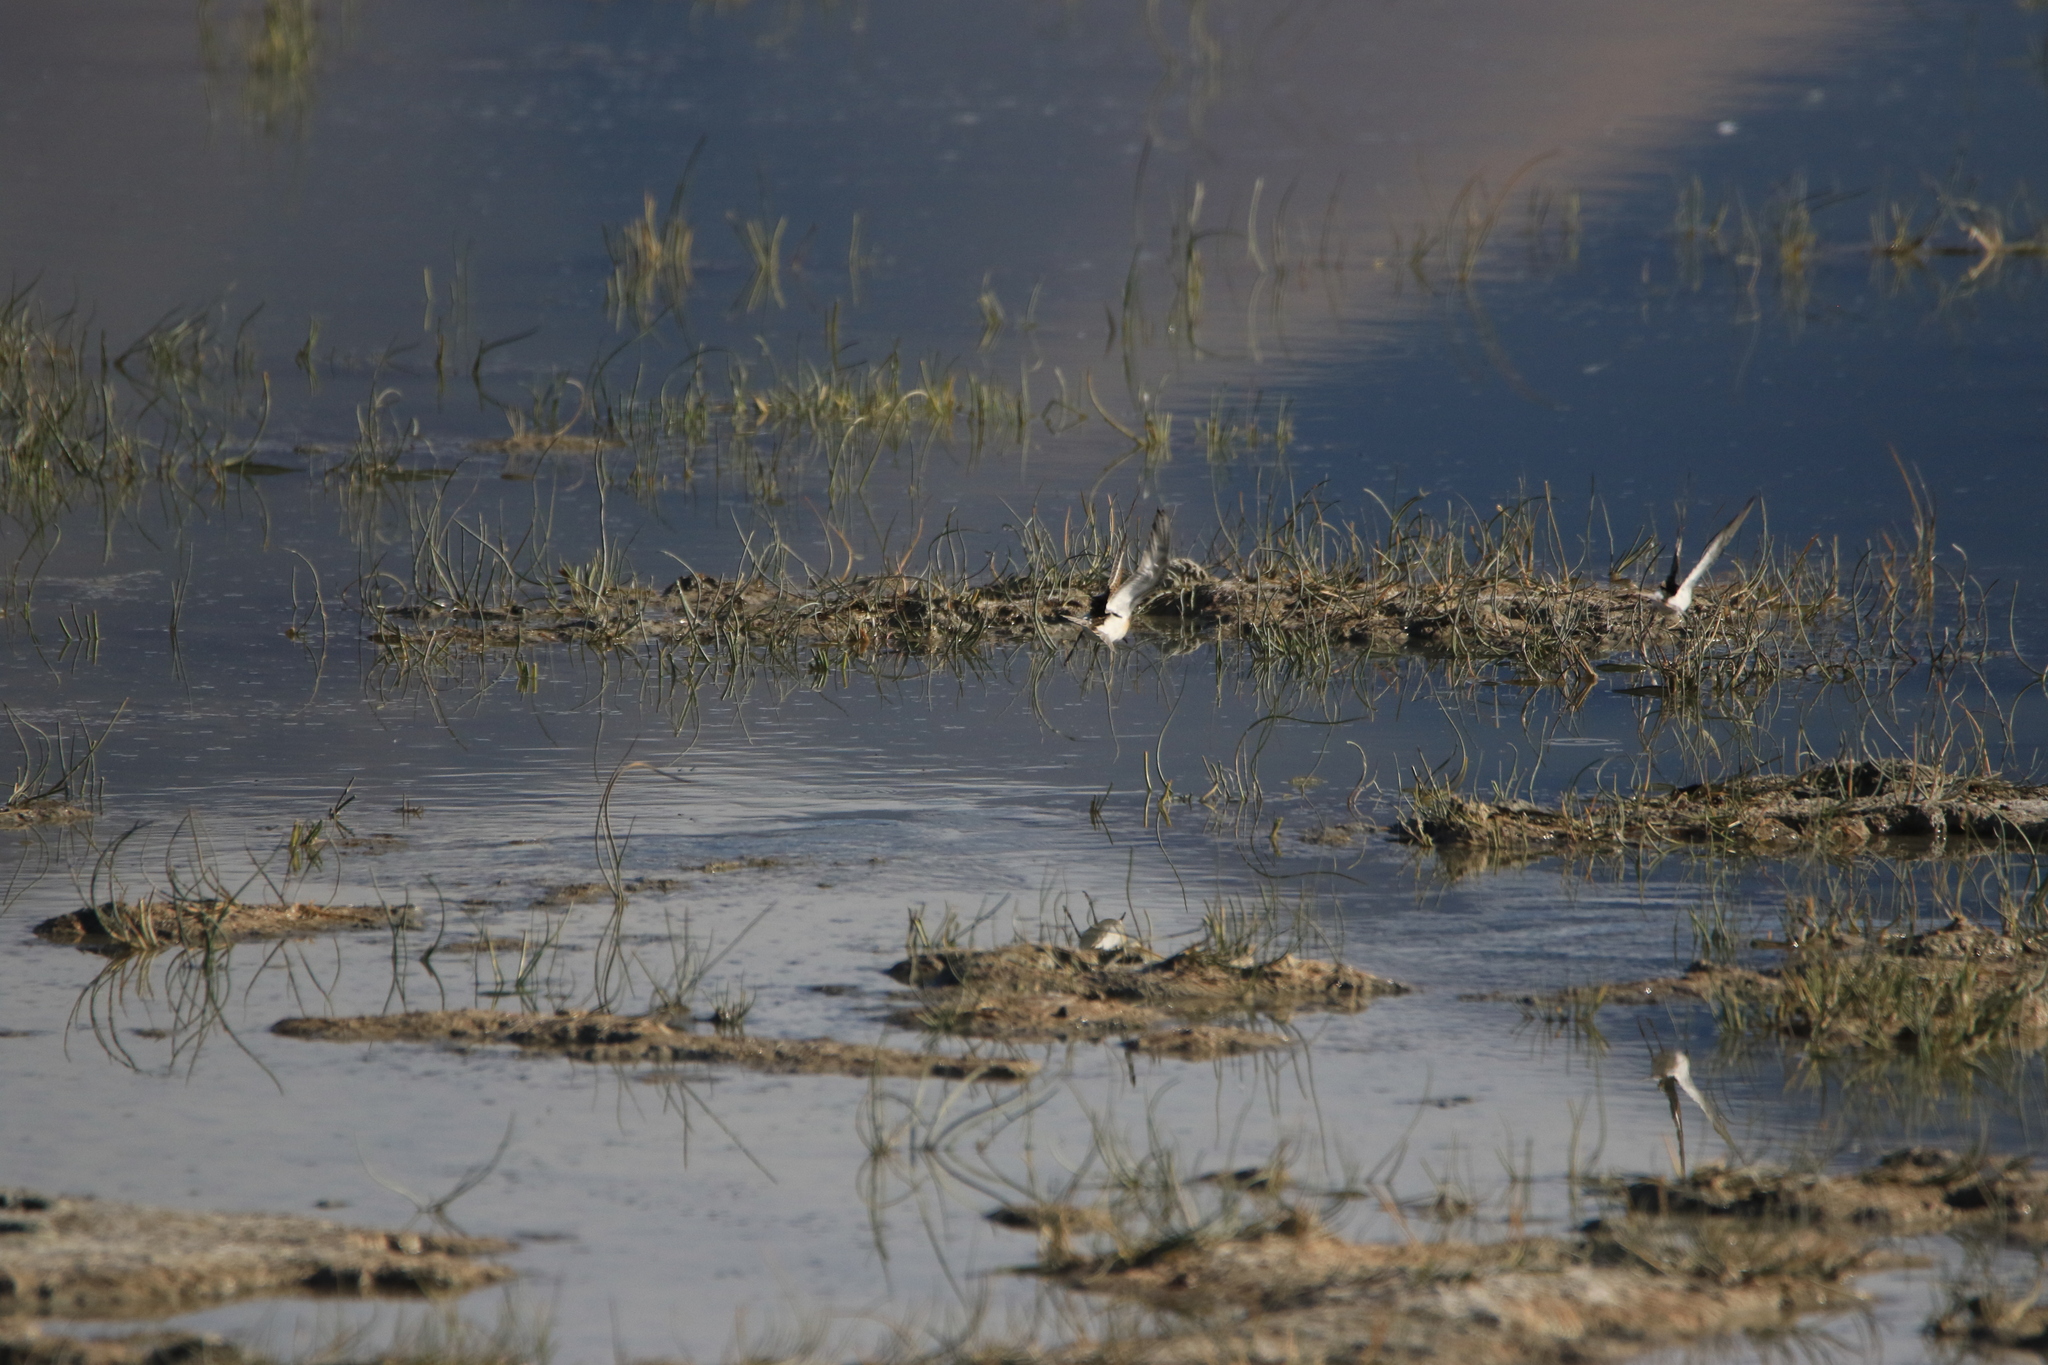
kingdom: Animalia
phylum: Chordata
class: Aves
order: Charadriiformes
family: Scolopacidae
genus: Calidris
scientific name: Calidris minuta
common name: Little stint
